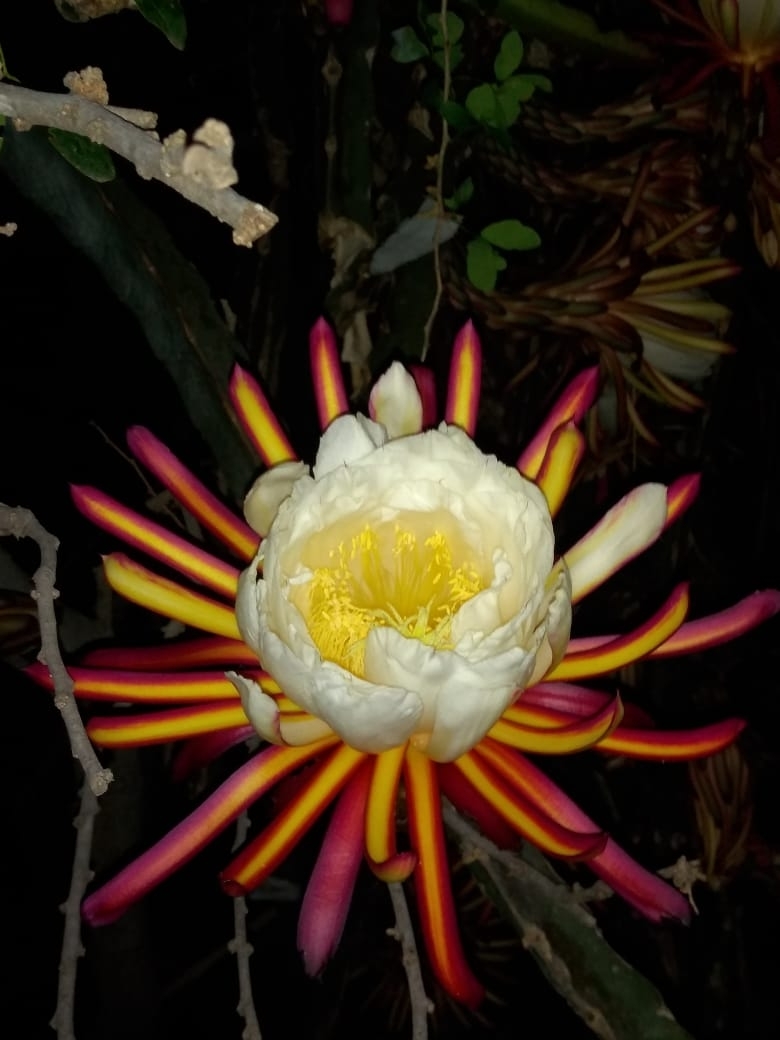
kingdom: Plantae
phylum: Tracheophyta
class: Magnoliopsida
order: Caryophyllales
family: Cactaceae
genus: Selenicereus
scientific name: Selenicereus ocamponis
